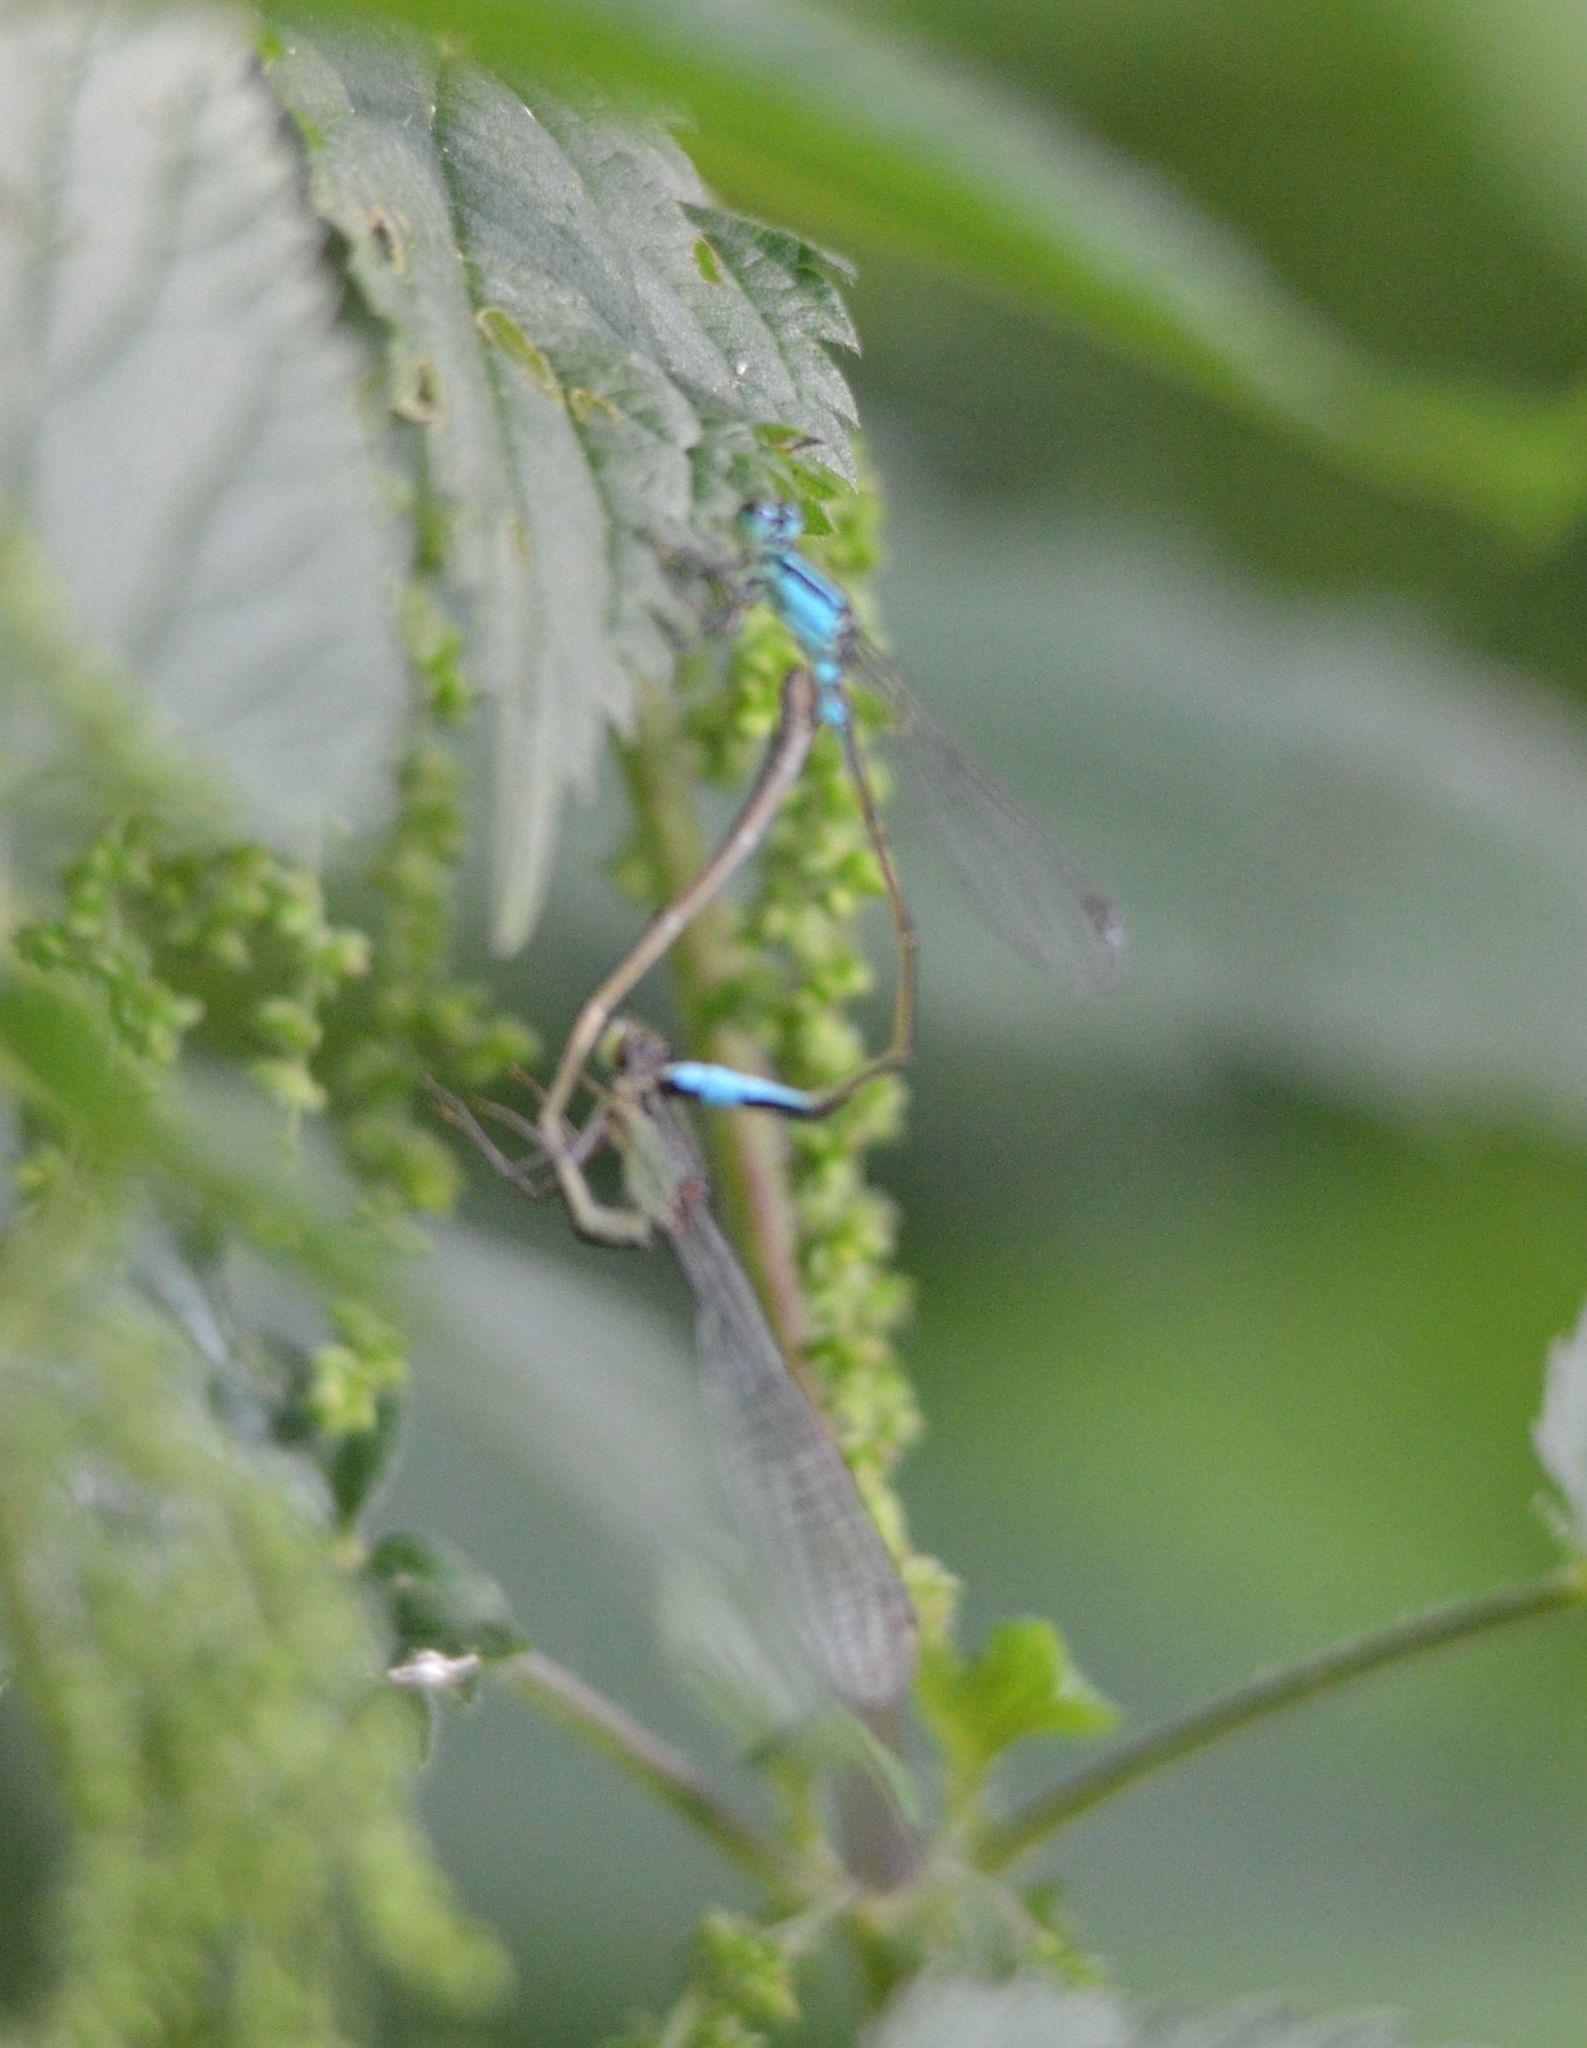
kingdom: Animalia
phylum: Arthropoda
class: Insecta
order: Odonata
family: Coenagrionidae
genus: Ischnura
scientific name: Ischnura elegans
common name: Blue-tailed damselfly
